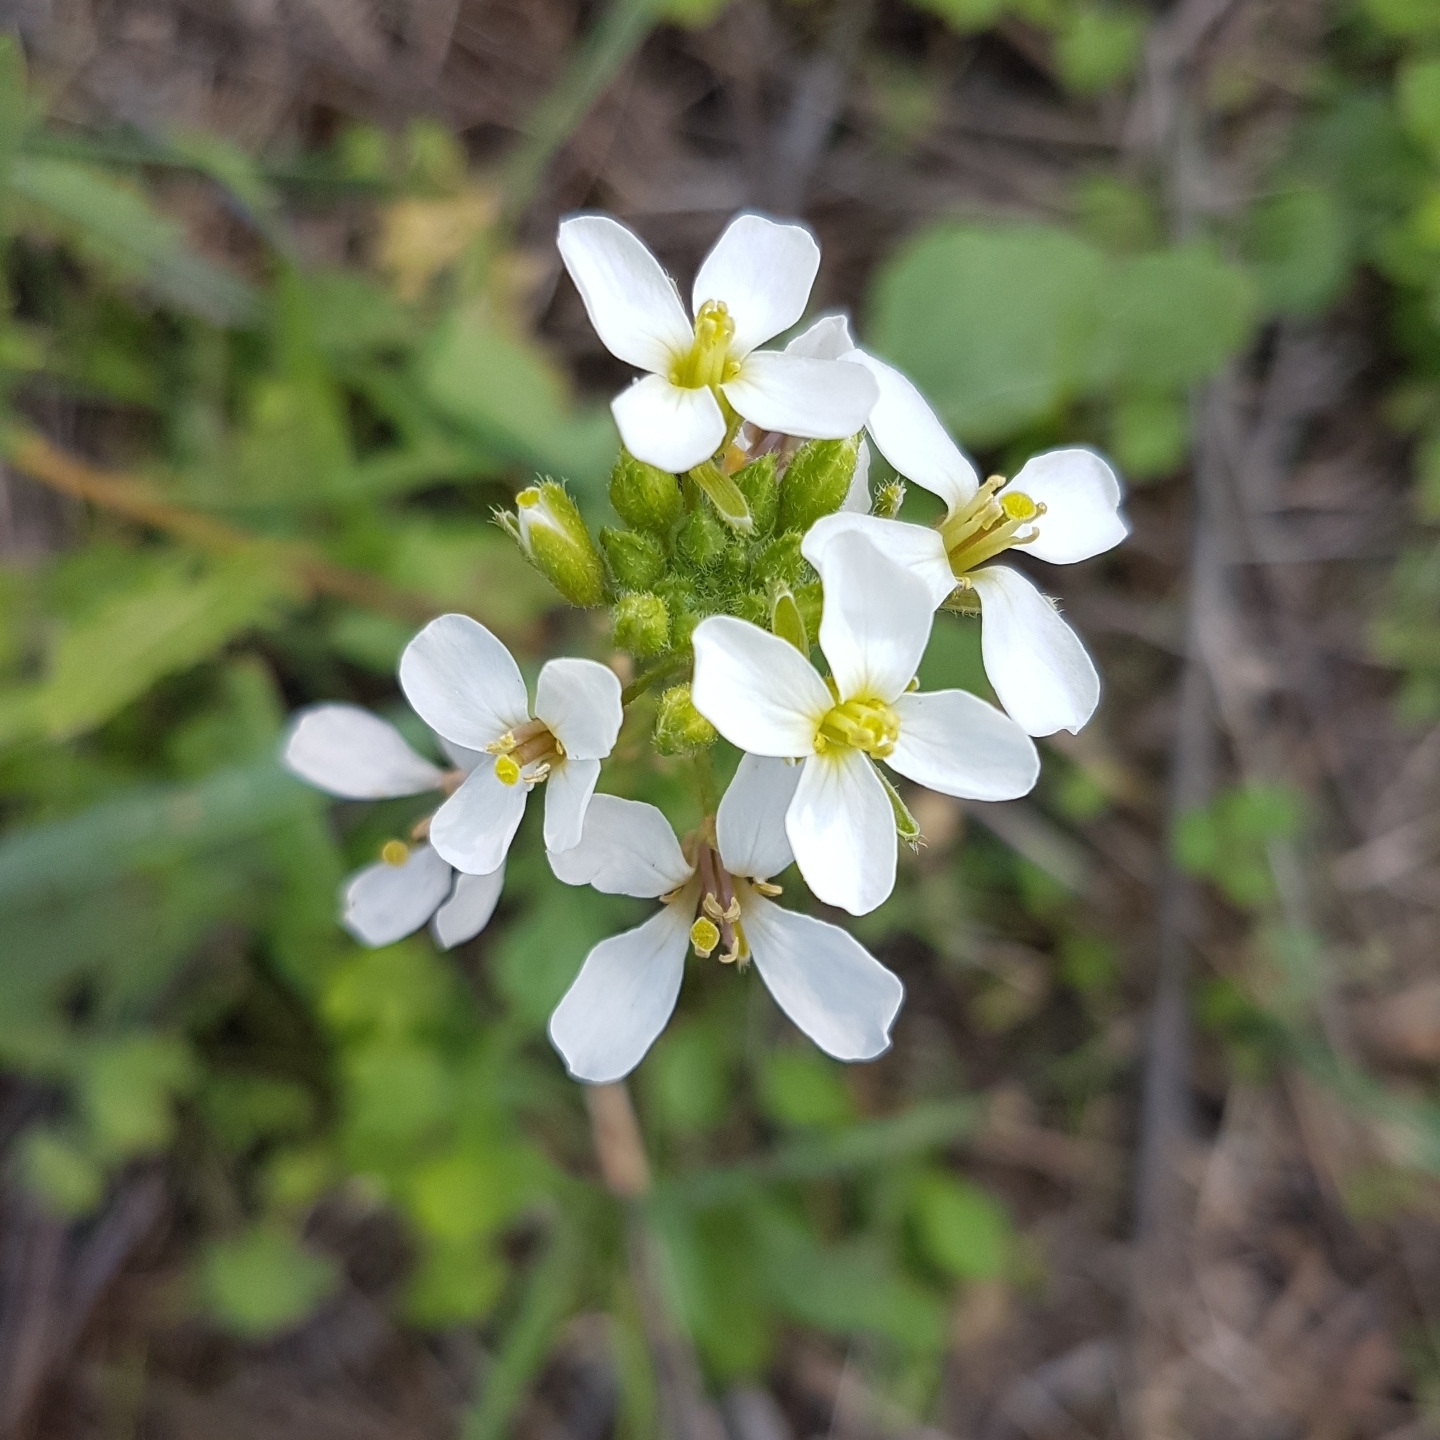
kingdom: Plantae
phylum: Tracheophyta
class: Magnoliopsida
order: Brassicales
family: Brassicaceae
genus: Diplotaxis
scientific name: Diplotaxis erucoides
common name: White rocket
